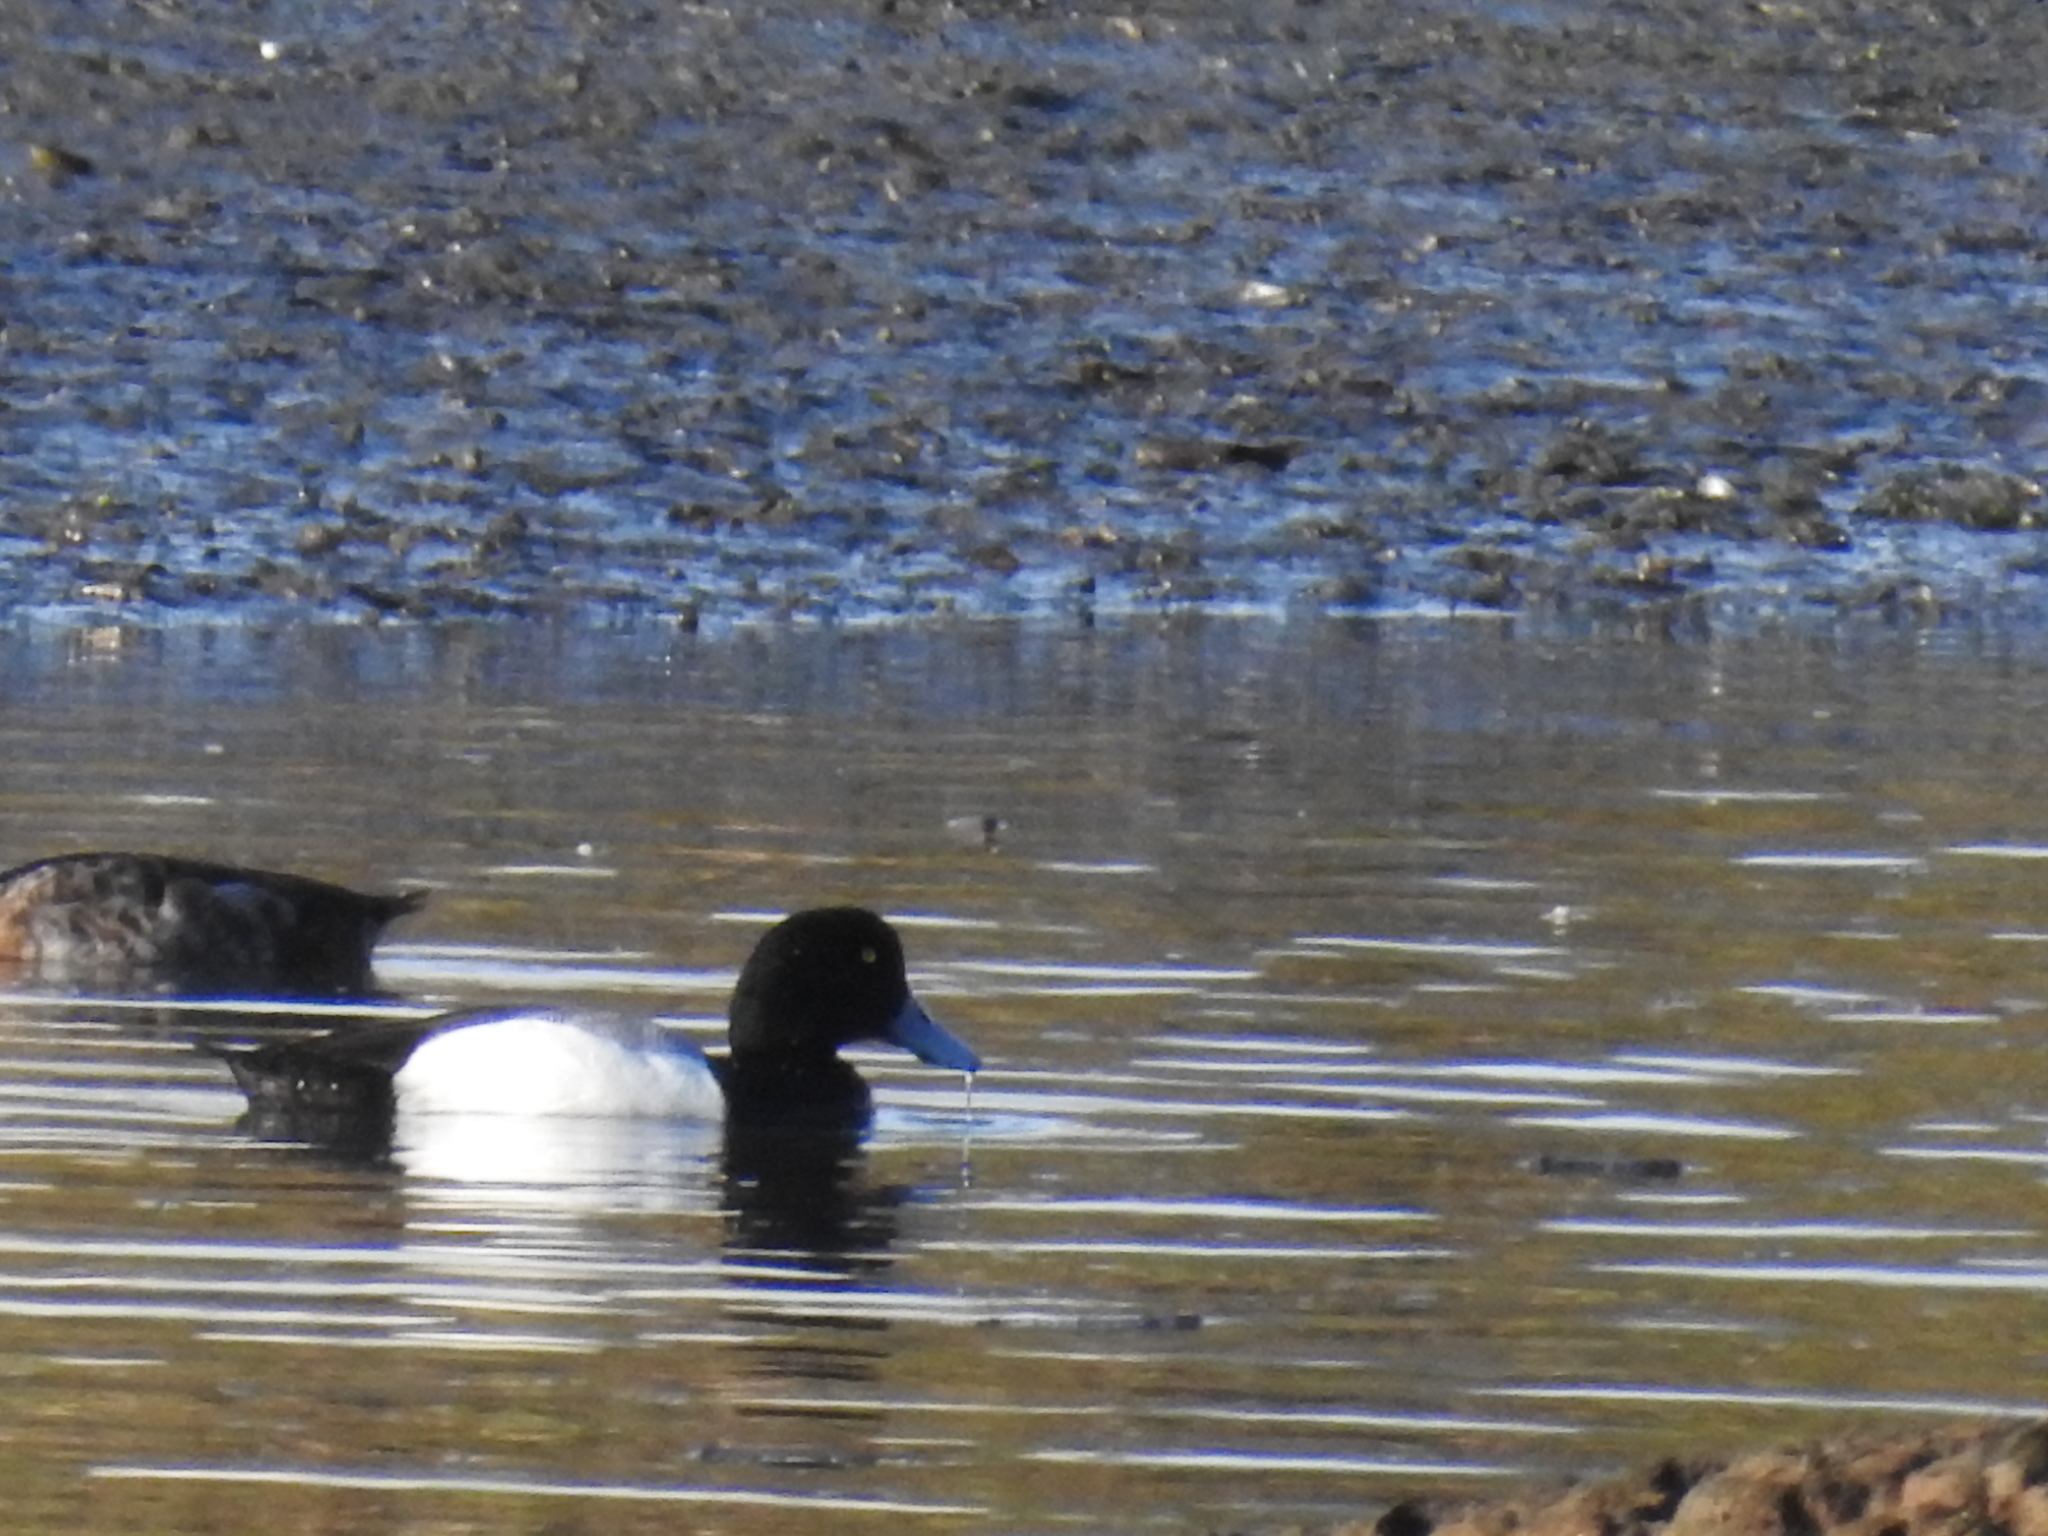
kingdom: Animalia
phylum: Chordata
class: Aves
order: Anseriformes
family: Anatidae
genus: Aythya
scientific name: Aythya marila
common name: Greater scaup
